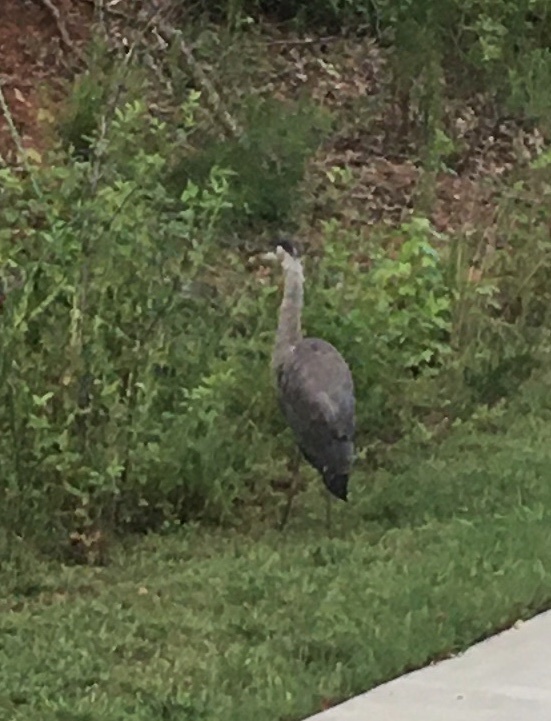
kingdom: Animalia
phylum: Chordata
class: Aves
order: Pelecaniformes
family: Ardeidae
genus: Ardea
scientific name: Ardea herodias
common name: Great blue heron
